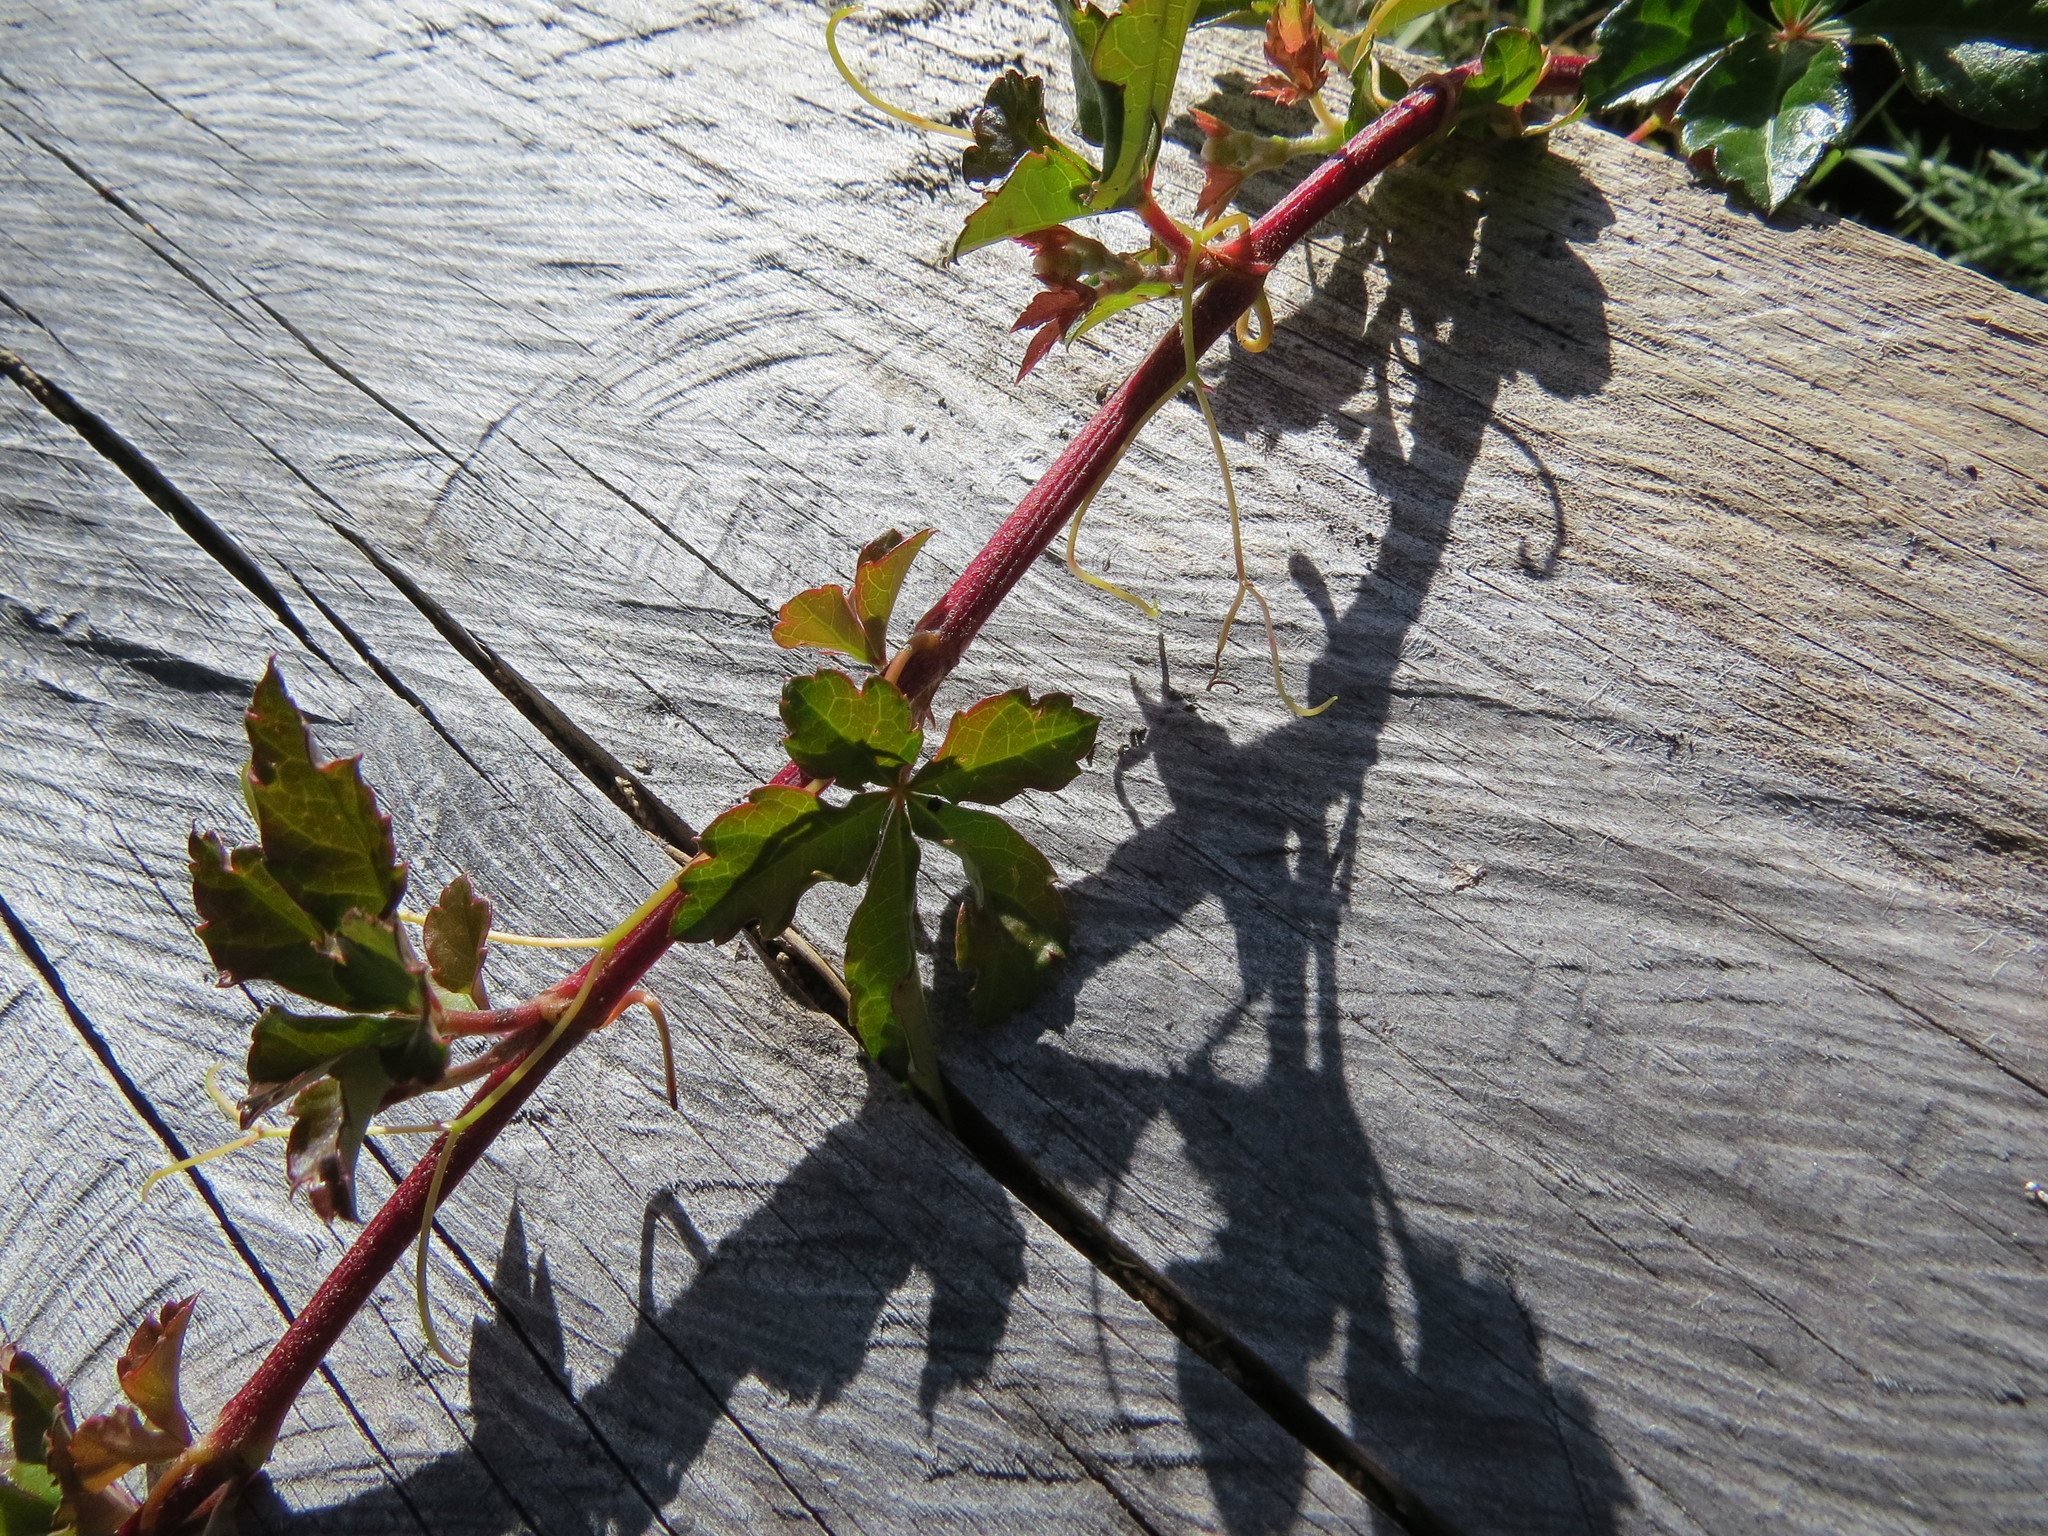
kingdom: Plantae
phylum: Tracheophyta
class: Magnoliopsida
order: Vitales
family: Vitaceae
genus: Clematicissus
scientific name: Clematicissus striata
